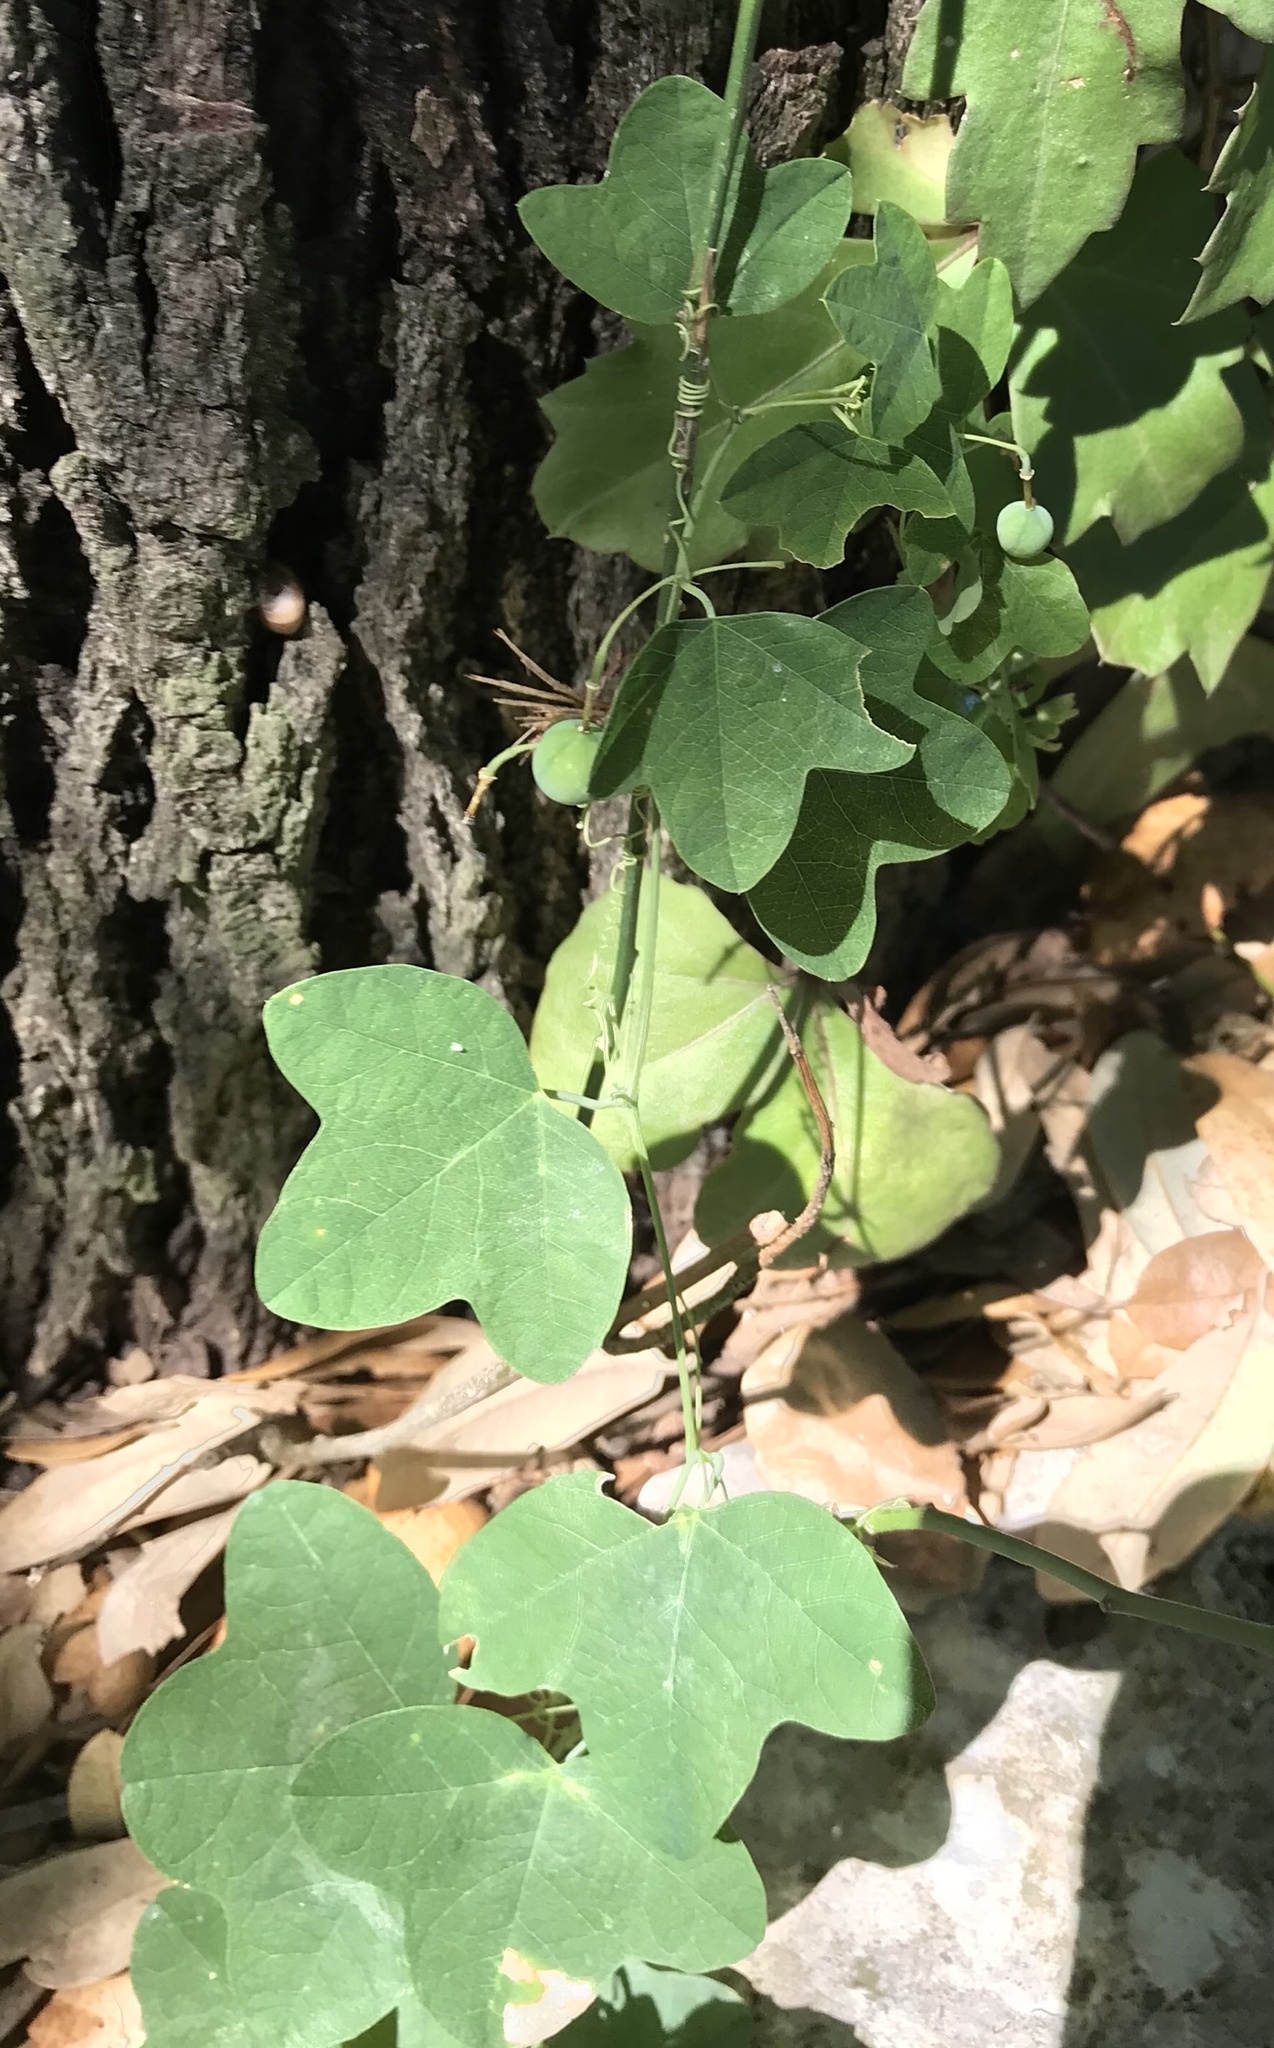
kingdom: Plantae
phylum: Tracheophyta
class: Magnoliopsida
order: Malpighiales
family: Passifloraceae
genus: Passiflora
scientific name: Passiflora lutea
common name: Yellow passionflower
